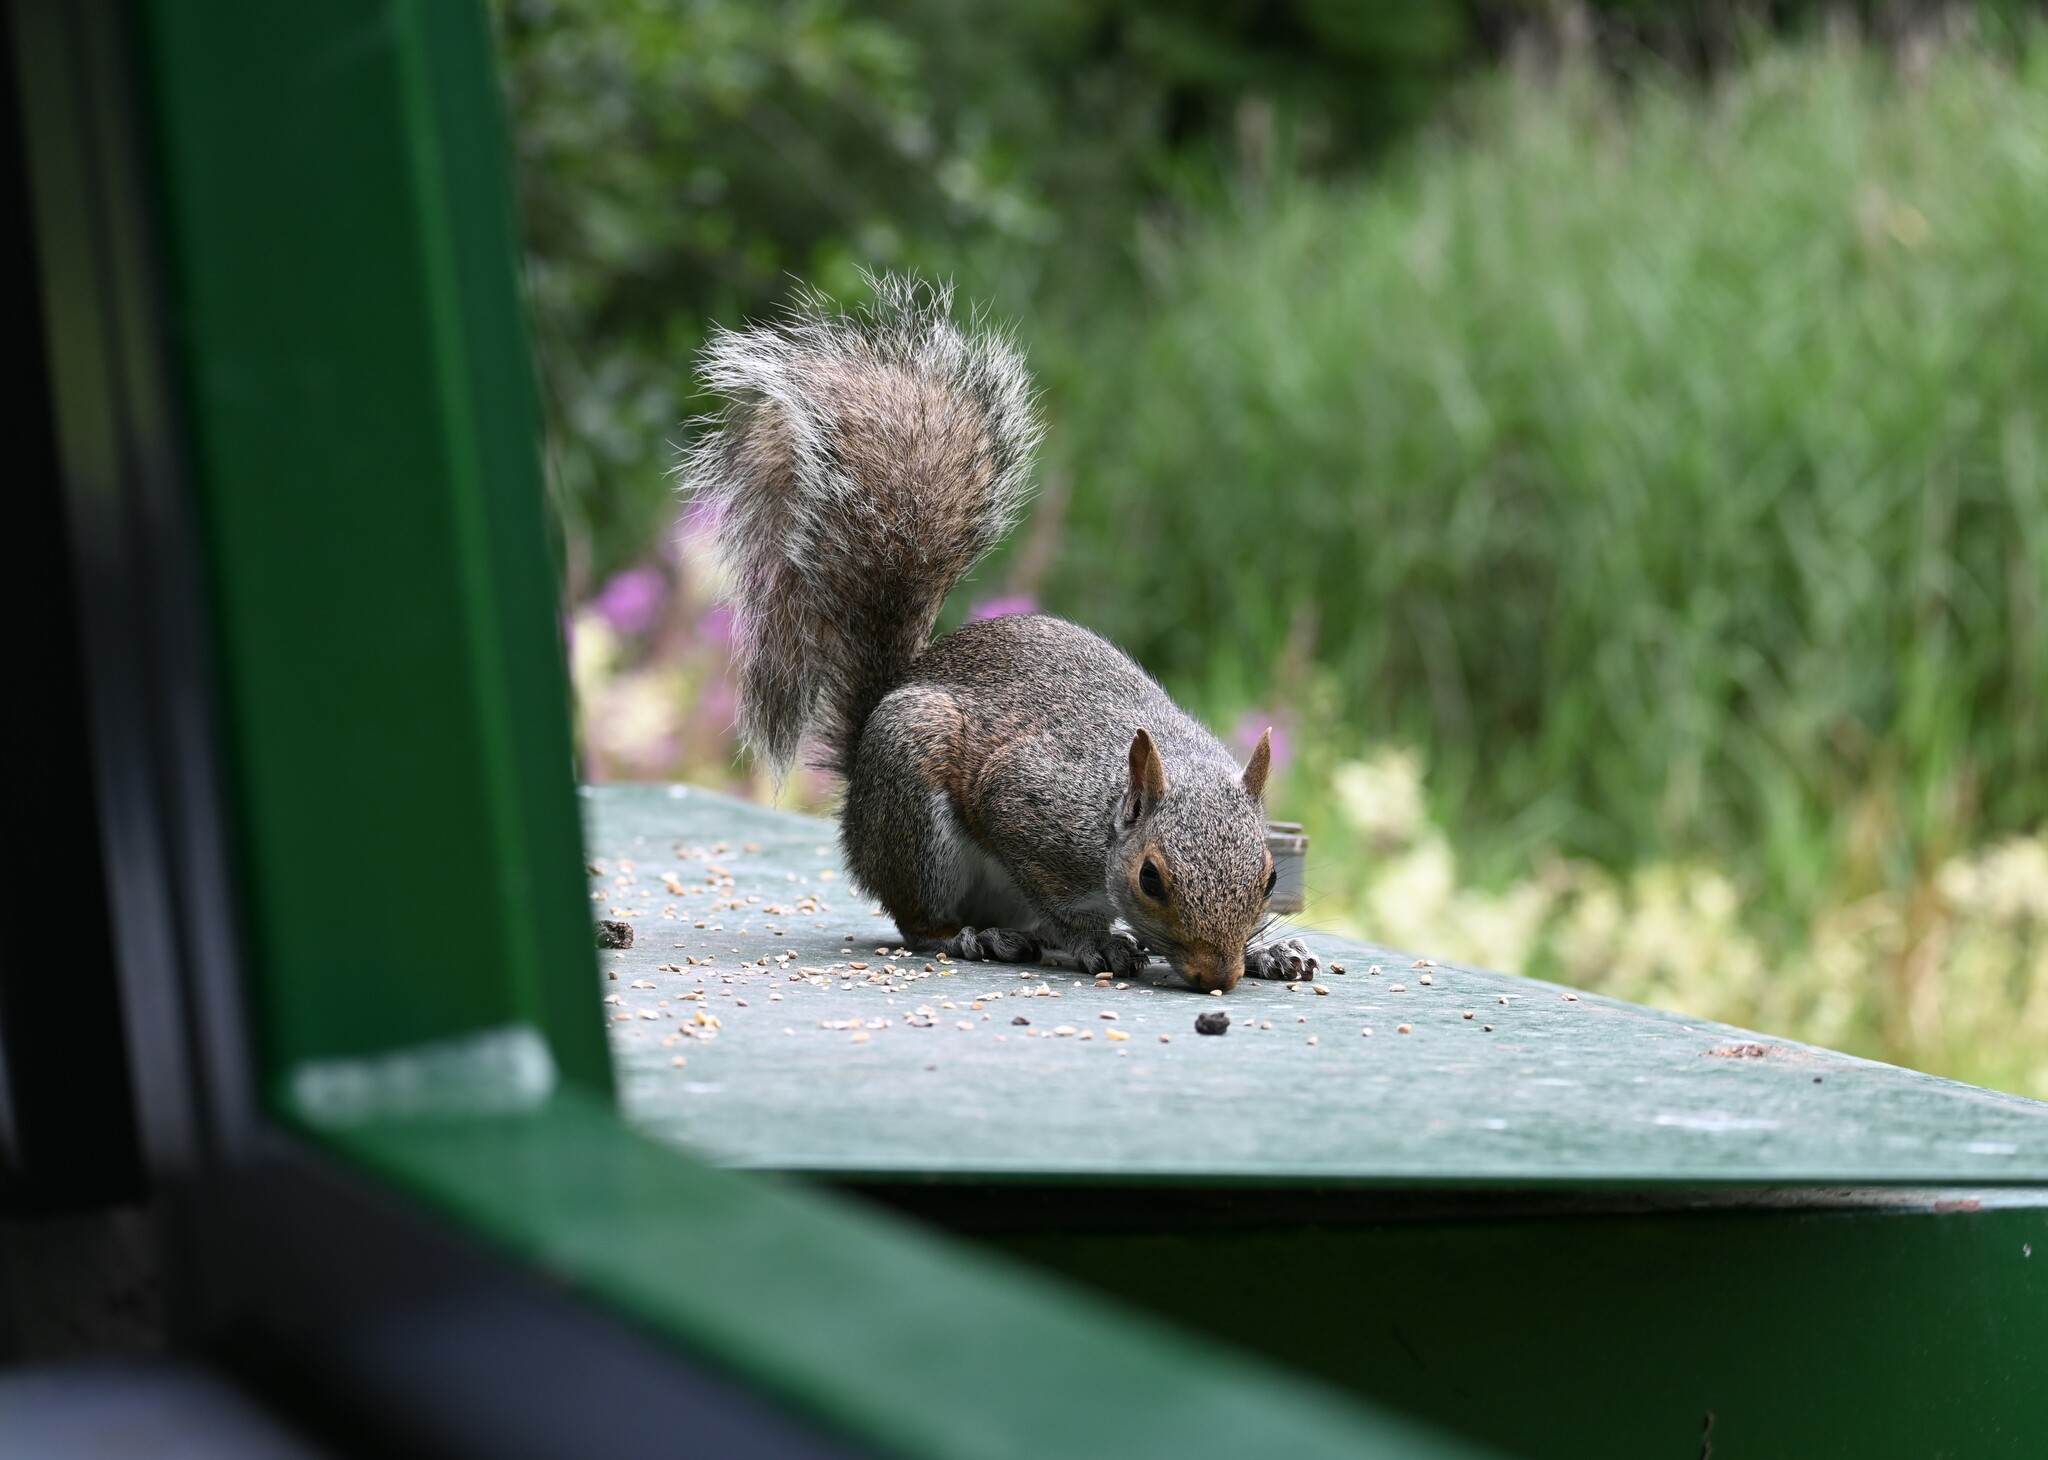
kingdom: Animalia
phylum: Chordata
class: Mammalia
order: Rodentia
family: Sciuridae
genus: Sciurus
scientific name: Sciurus carolinensis
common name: Eastern gray squirrel
